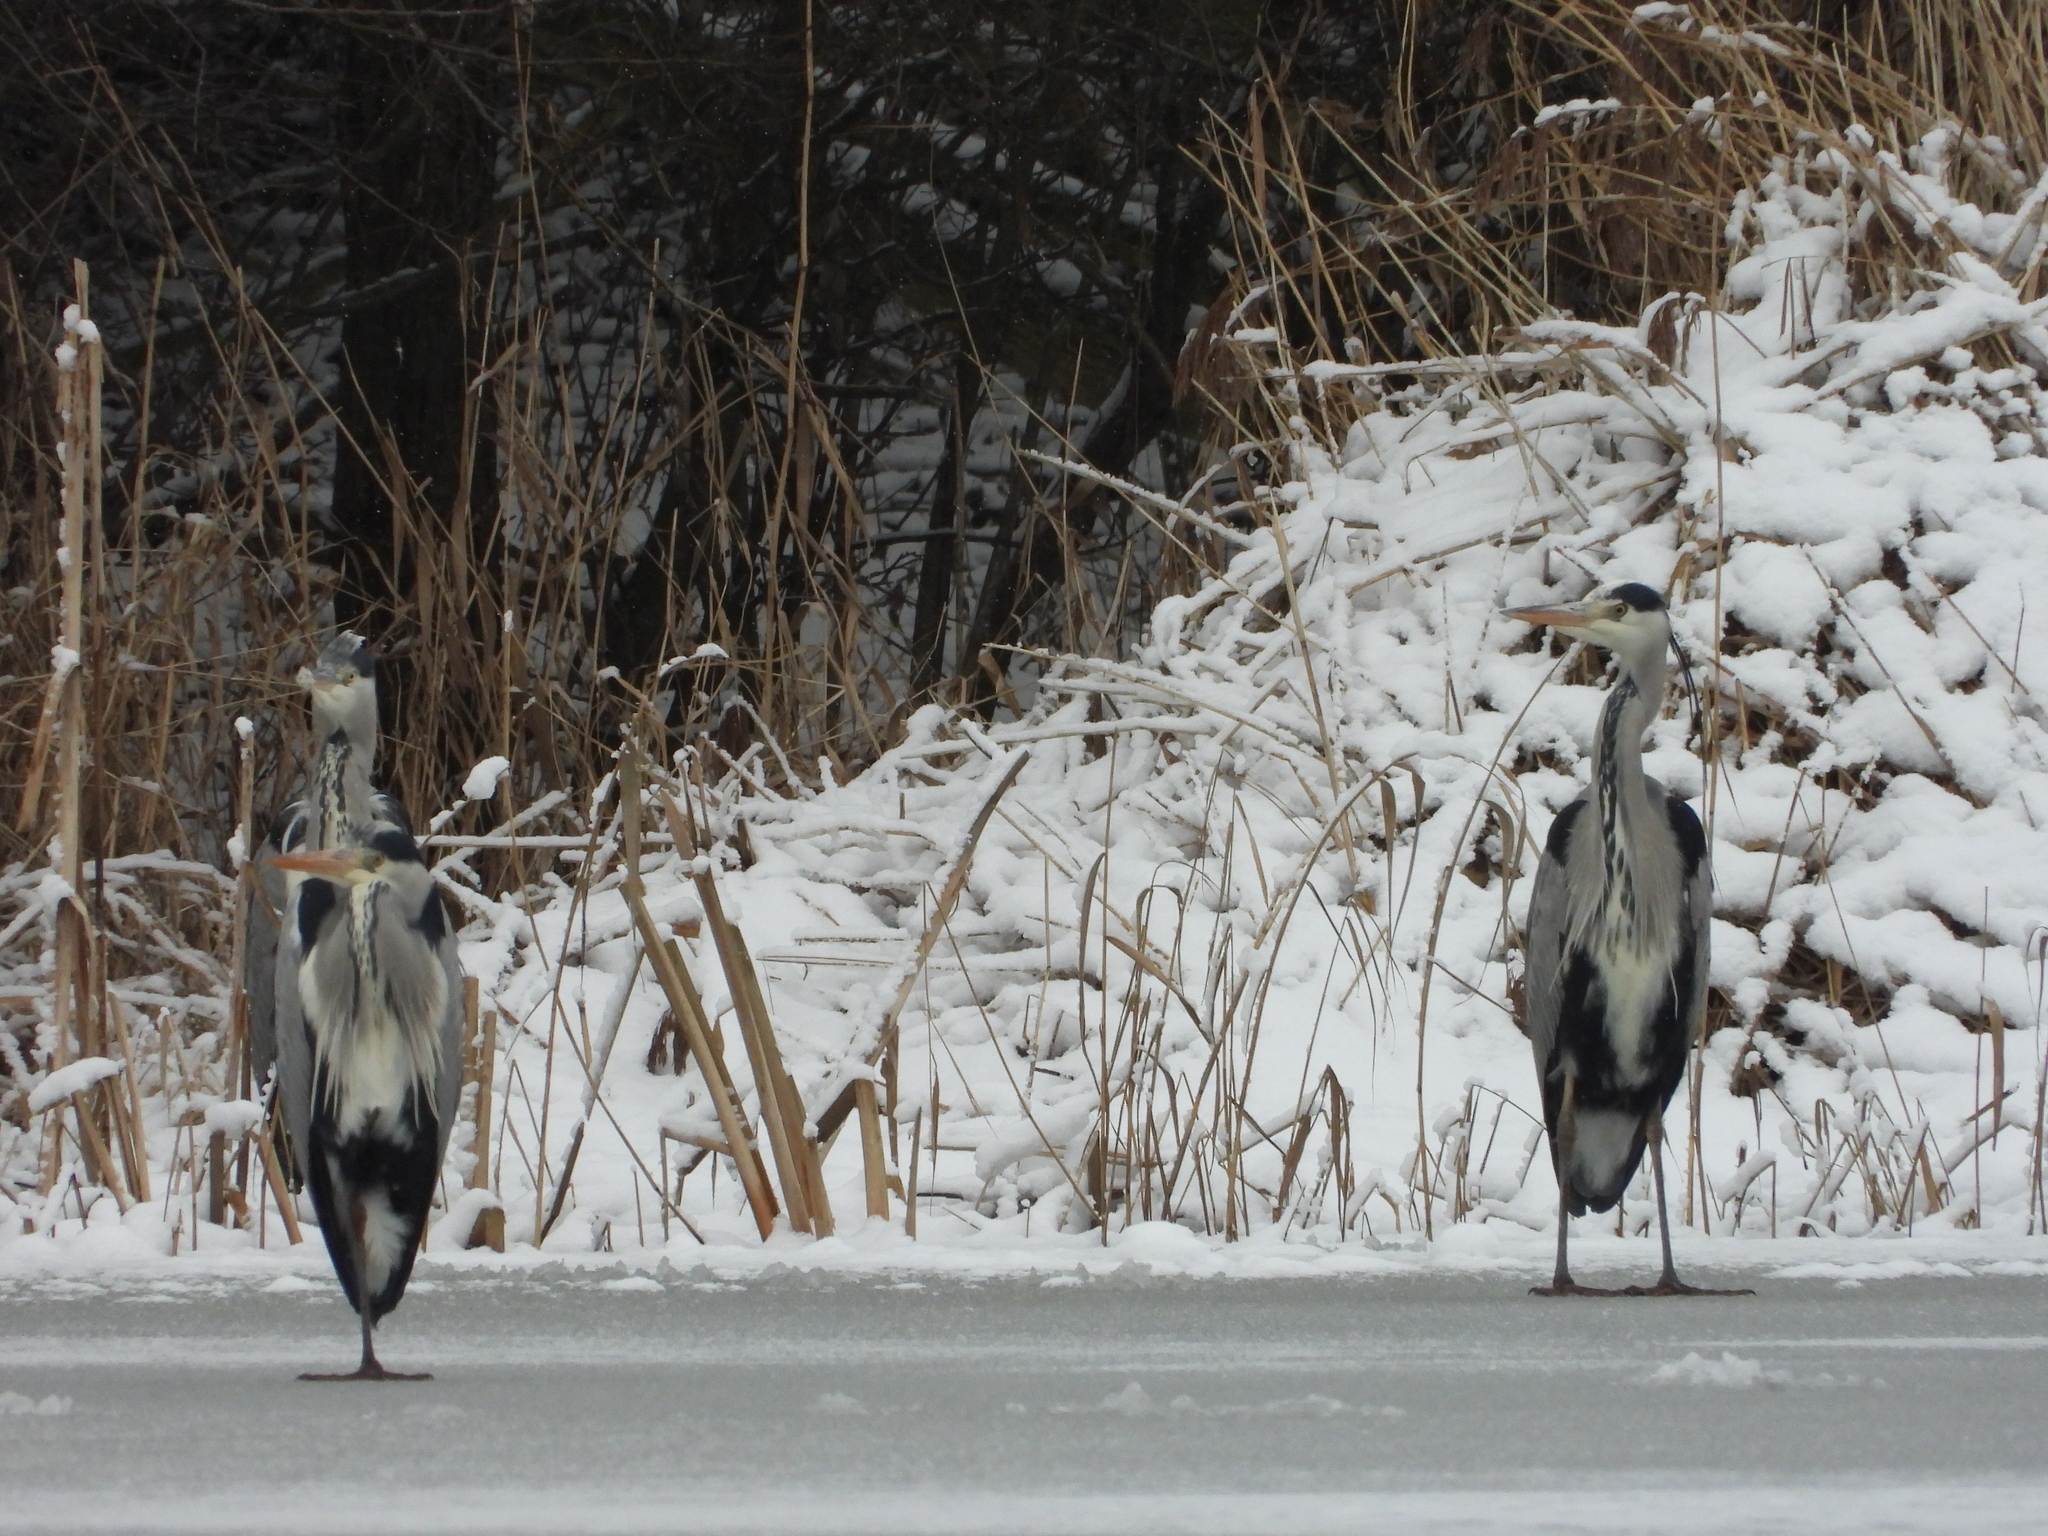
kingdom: Animalia
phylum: Chordata
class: Aves
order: Pelecaniformes
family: Ardeidae
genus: Ardea
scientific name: Ardea cinerea
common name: Grey heron
